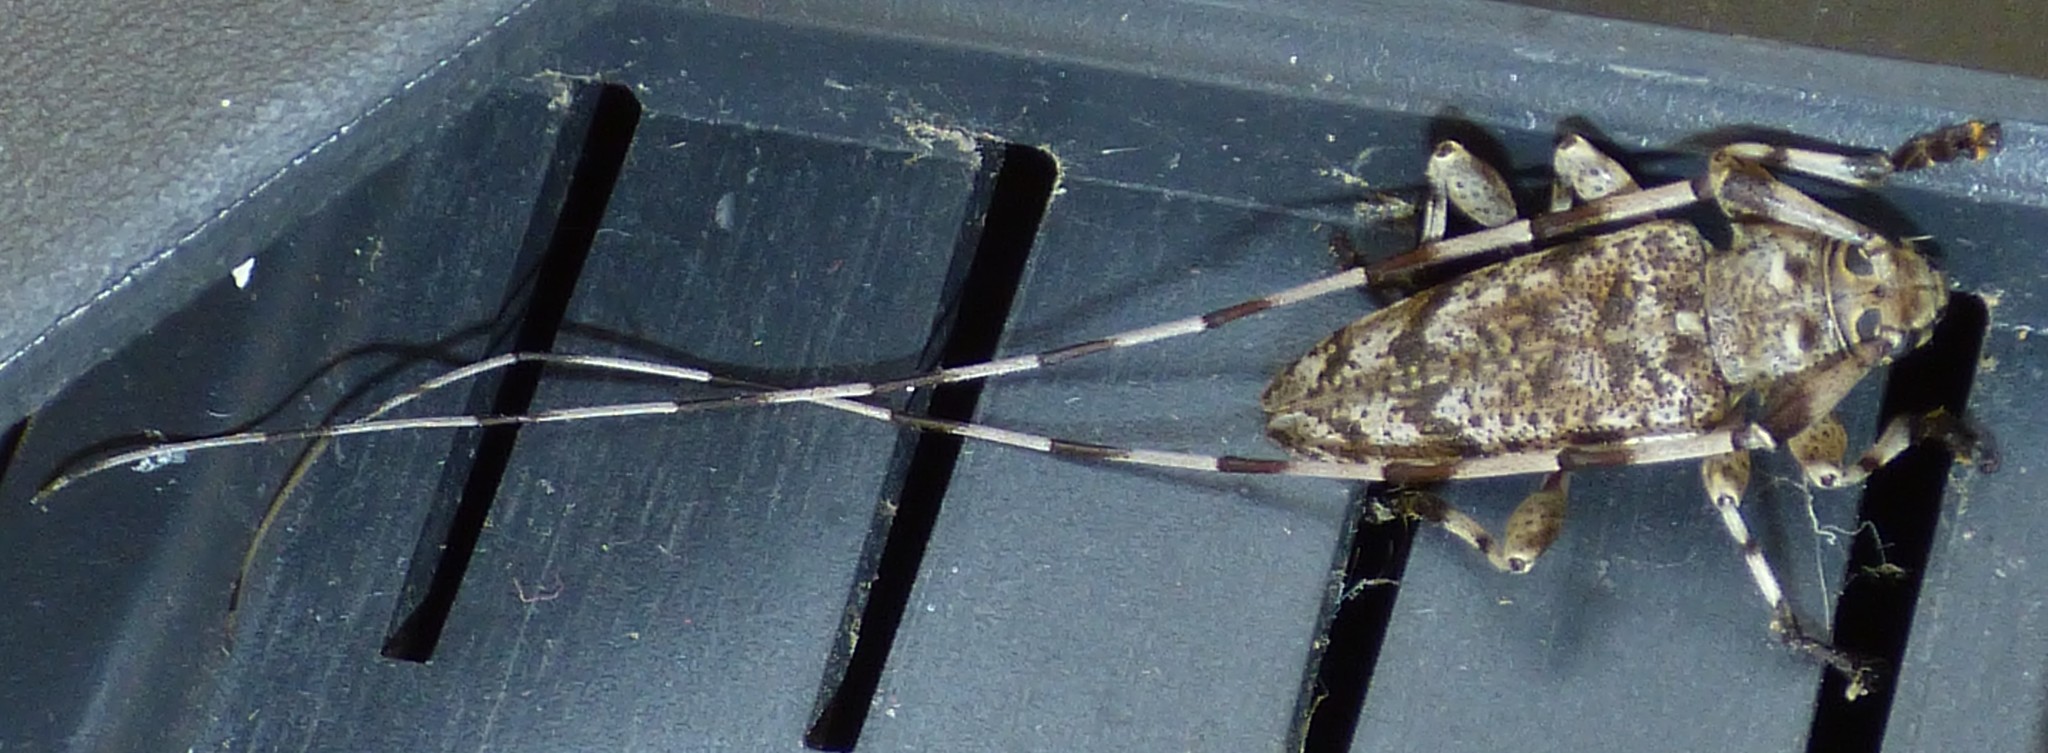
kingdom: Animalia
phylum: Arthropoda
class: Insecta
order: Coleoptera
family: Cerambycidae
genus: Acanthocinus
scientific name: Acanthocinus obsoletus
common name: Roundheaded borer
